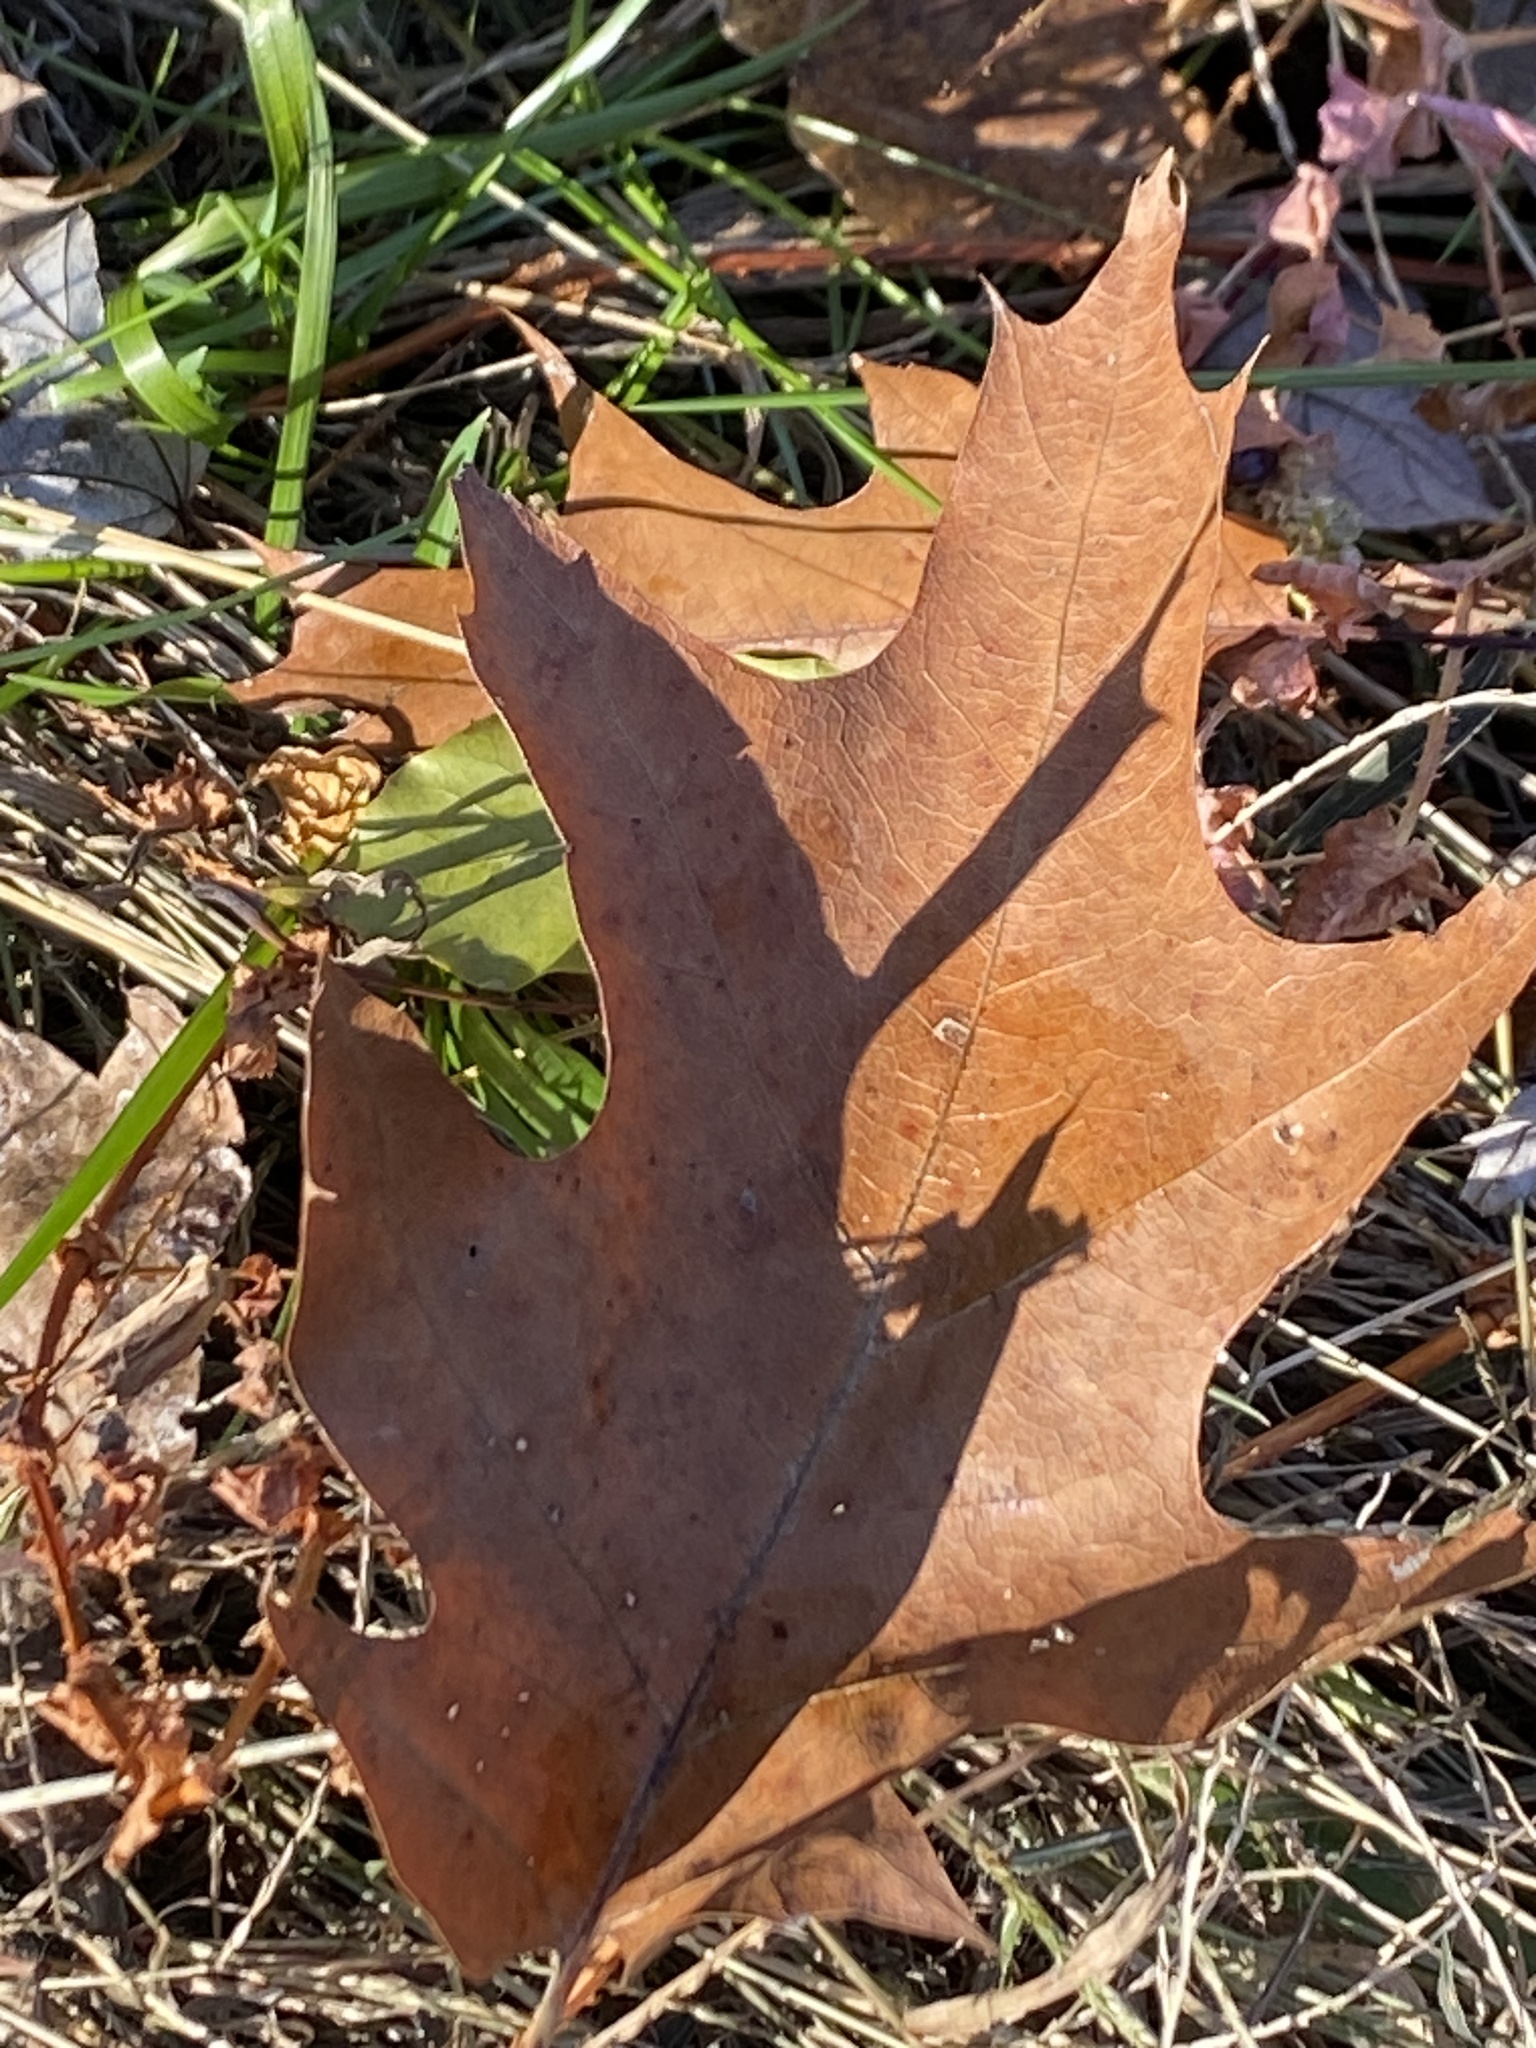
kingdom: Plantae
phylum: Tracheophyta
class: Magnoliopsida
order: Fagales
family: Fagaceae
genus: Quercus
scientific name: Quercus rubra
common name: Red oak
